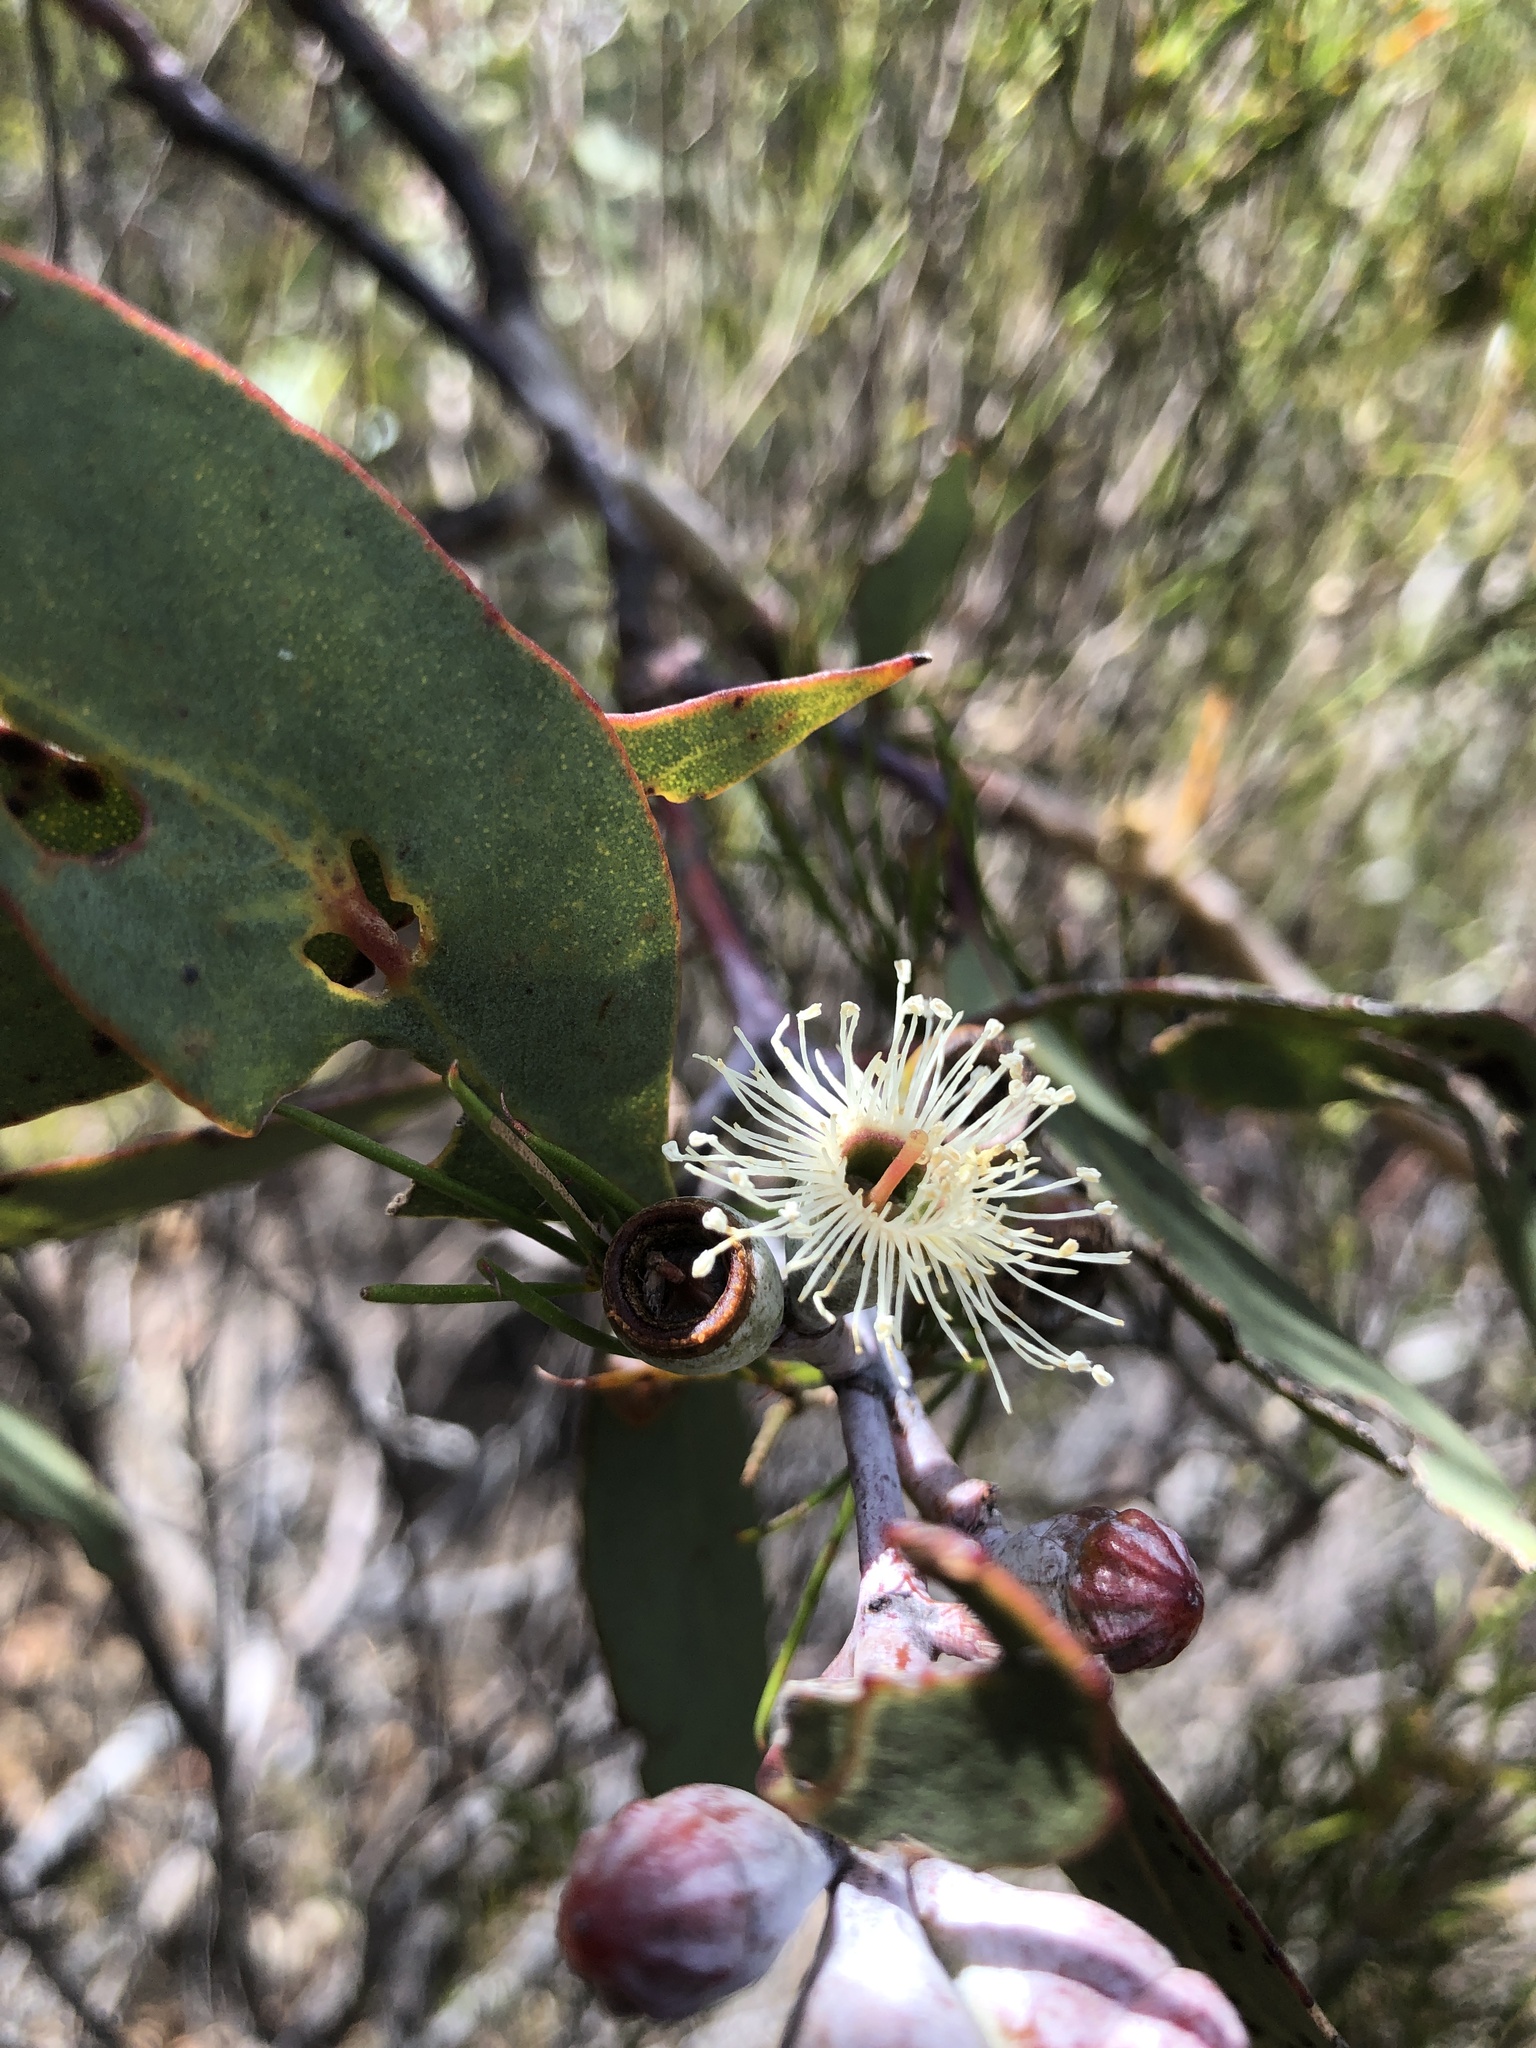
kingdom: Plantae
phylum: Tracheophyta
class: Magnoliopsida
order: Myrtales
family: Myrtaceae
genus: Eucalyptus
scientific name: Eucalyptus cretata
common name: Darke peak mallee
